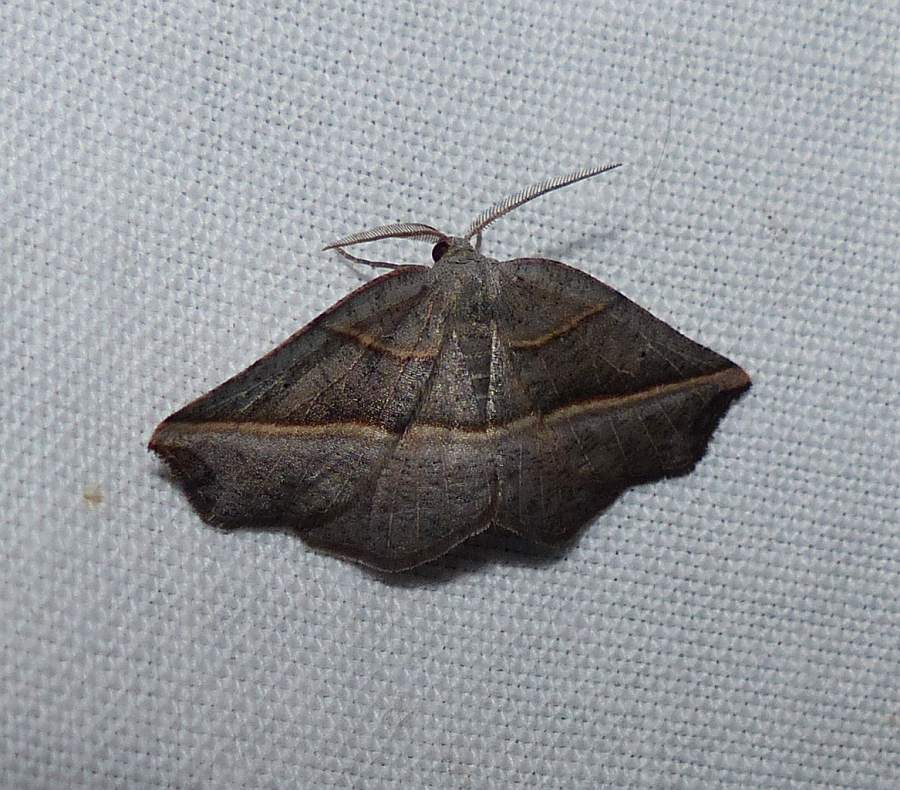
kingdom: Animalia
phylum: Arthropoda
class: Insecta
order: Lepidoptera
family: Geometridae
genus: Metanema
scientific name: Metanema determinata
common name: Dark metanema
